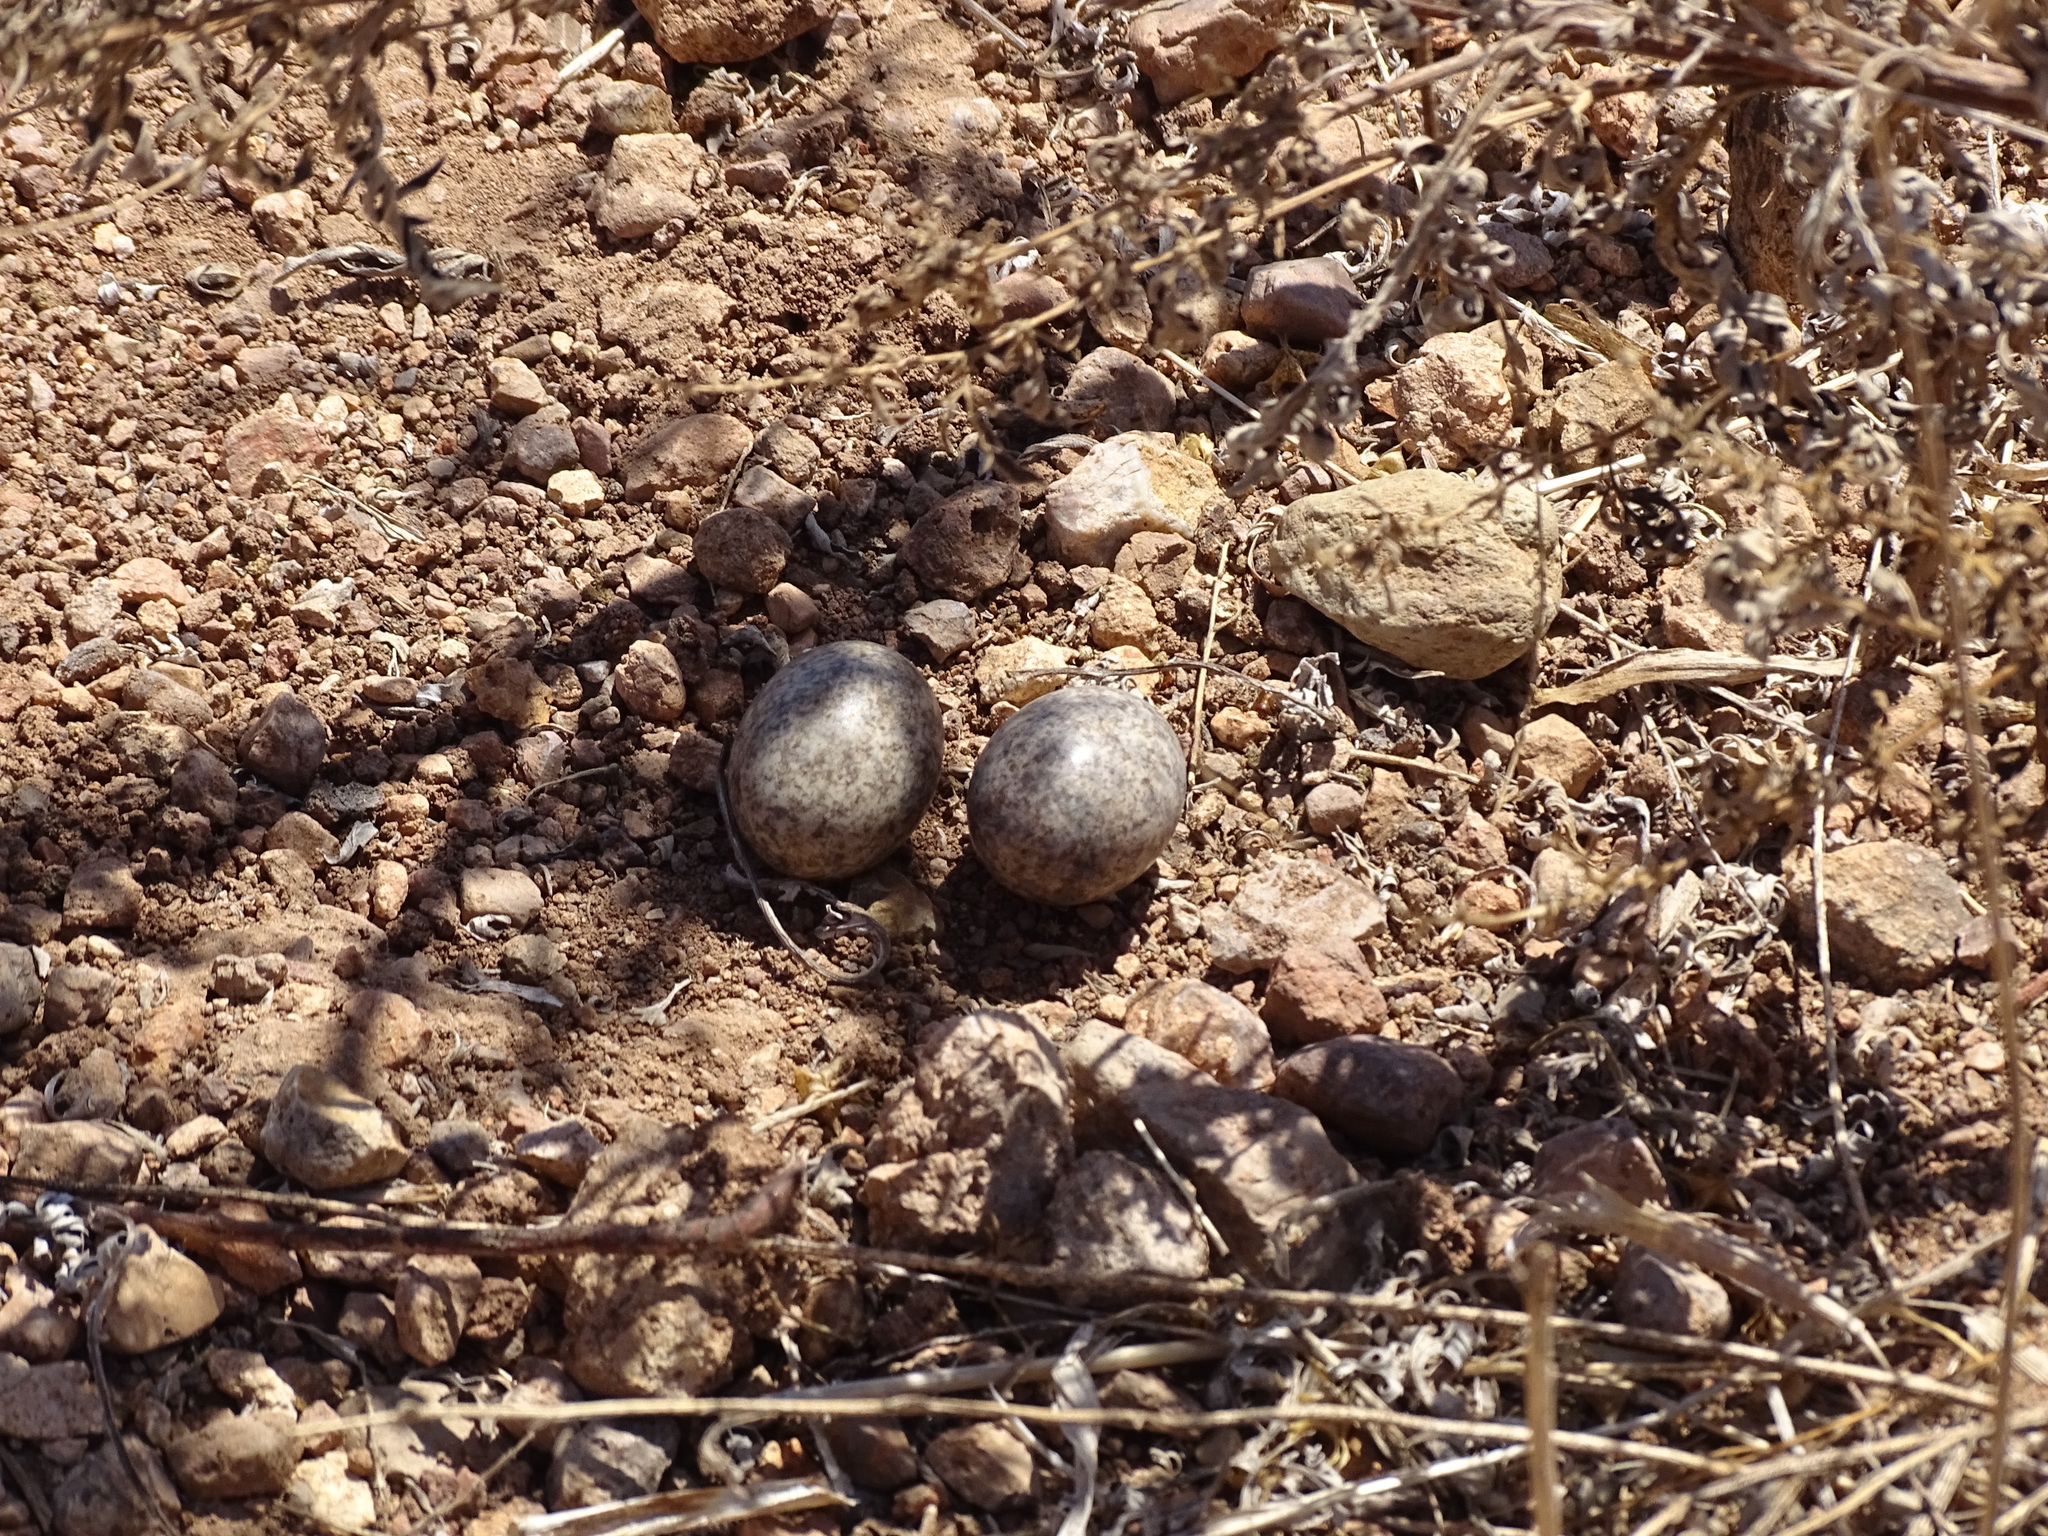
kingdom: Animalia
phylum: Chordata
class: Aves
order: Caprimulgiformes
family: Caprimulgidae
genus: Chordeiles
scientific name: Chordeiles acutipennis
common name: Lesser nighthawk
